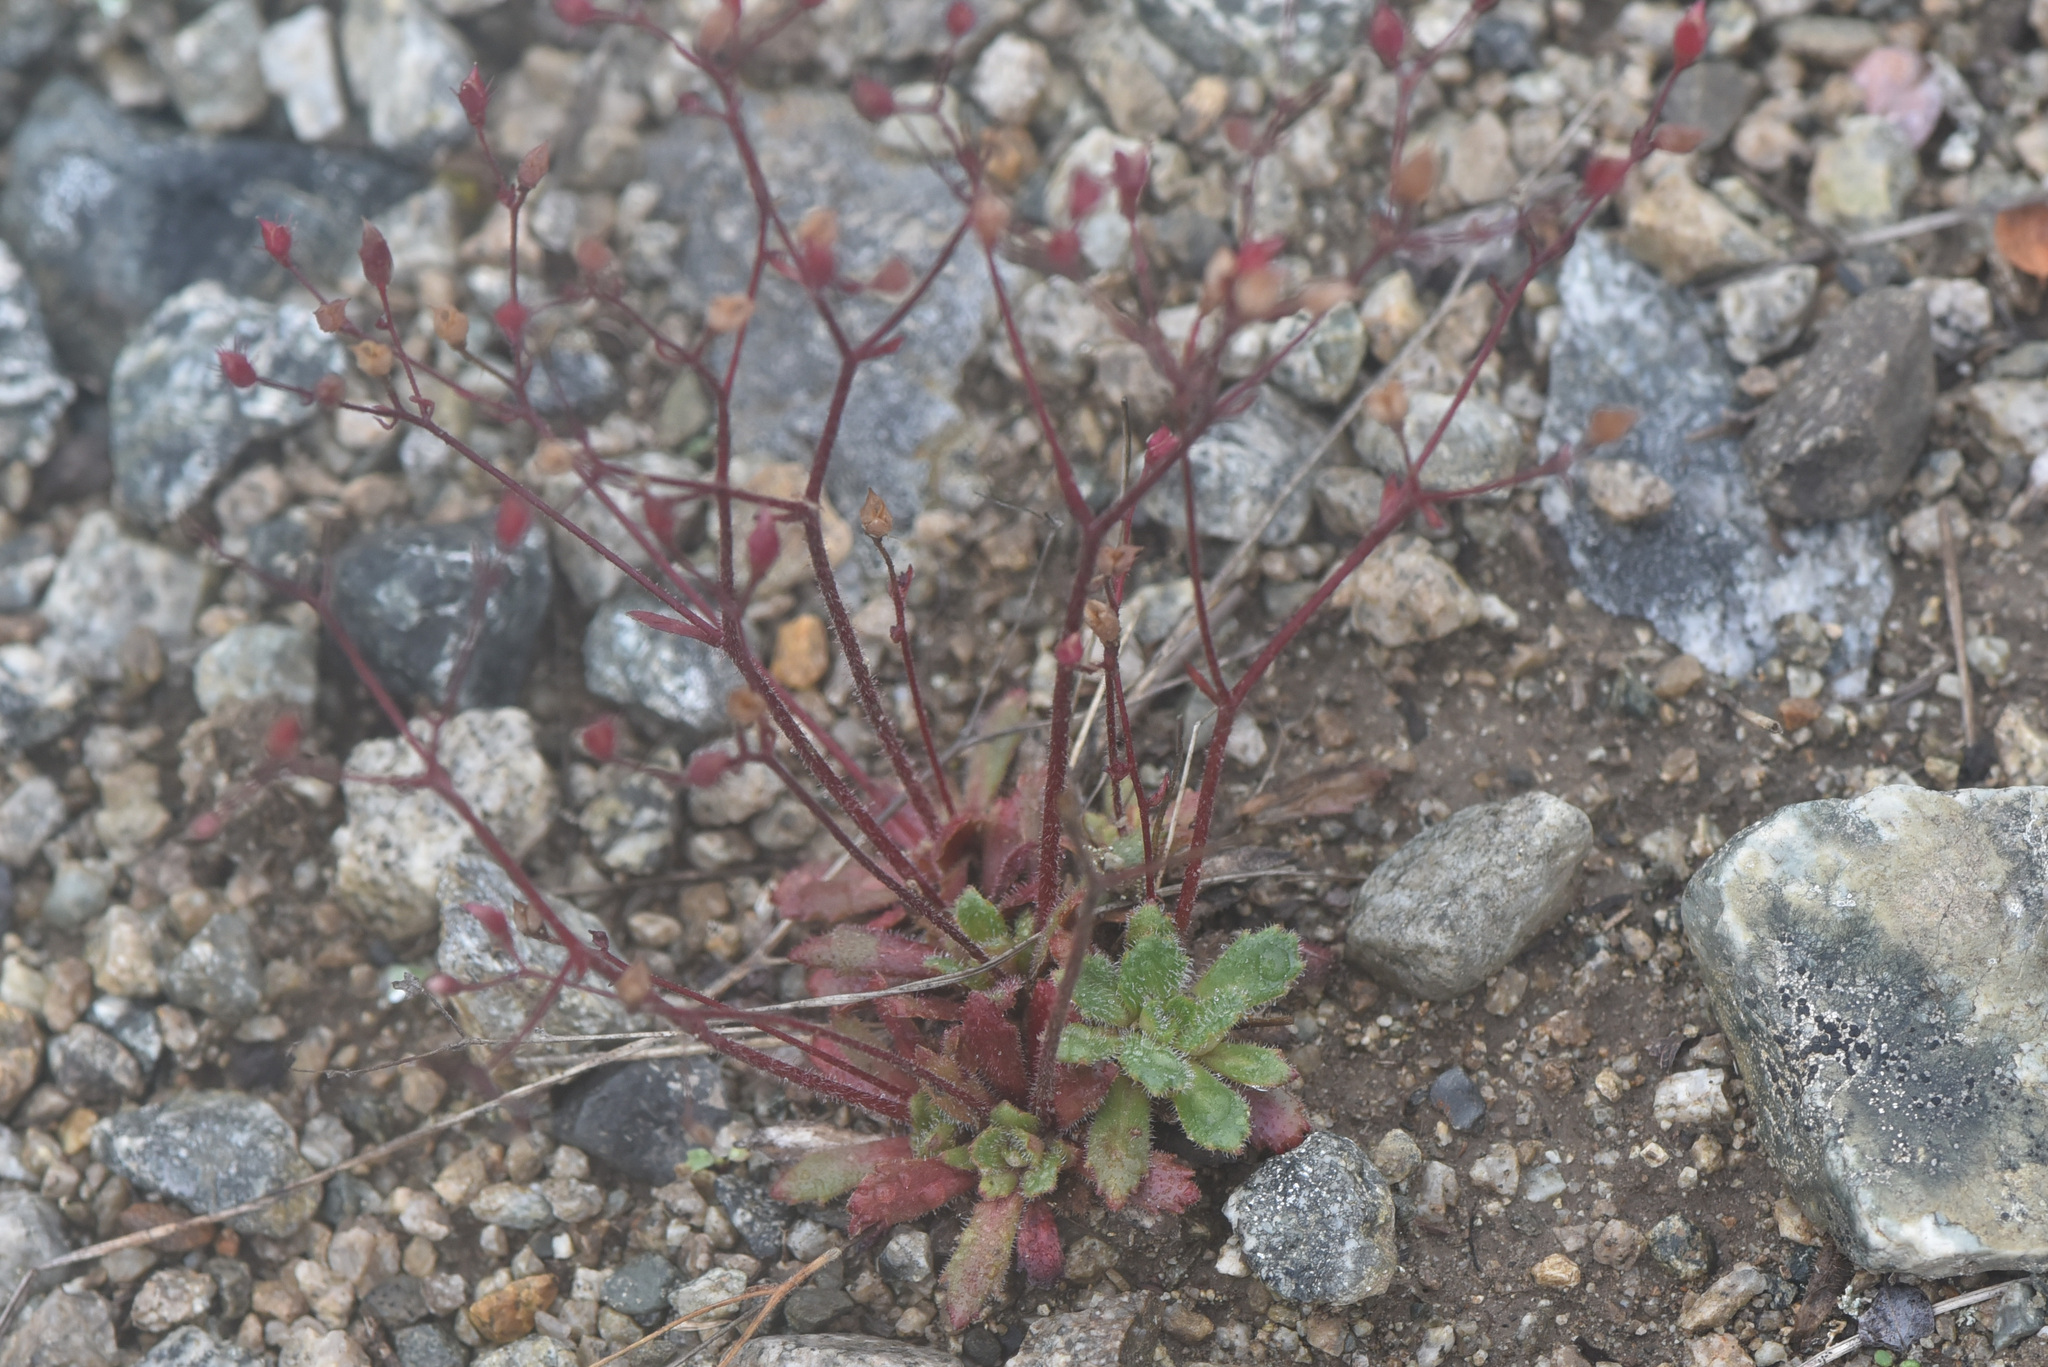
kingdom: Plantae
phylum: Tracheophyta
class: Magnoliopsida
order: Saxifragales
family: Saxifragaceae
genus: Micranthes
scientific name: Micranthes ferruginea
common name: Rusty saxifrage
